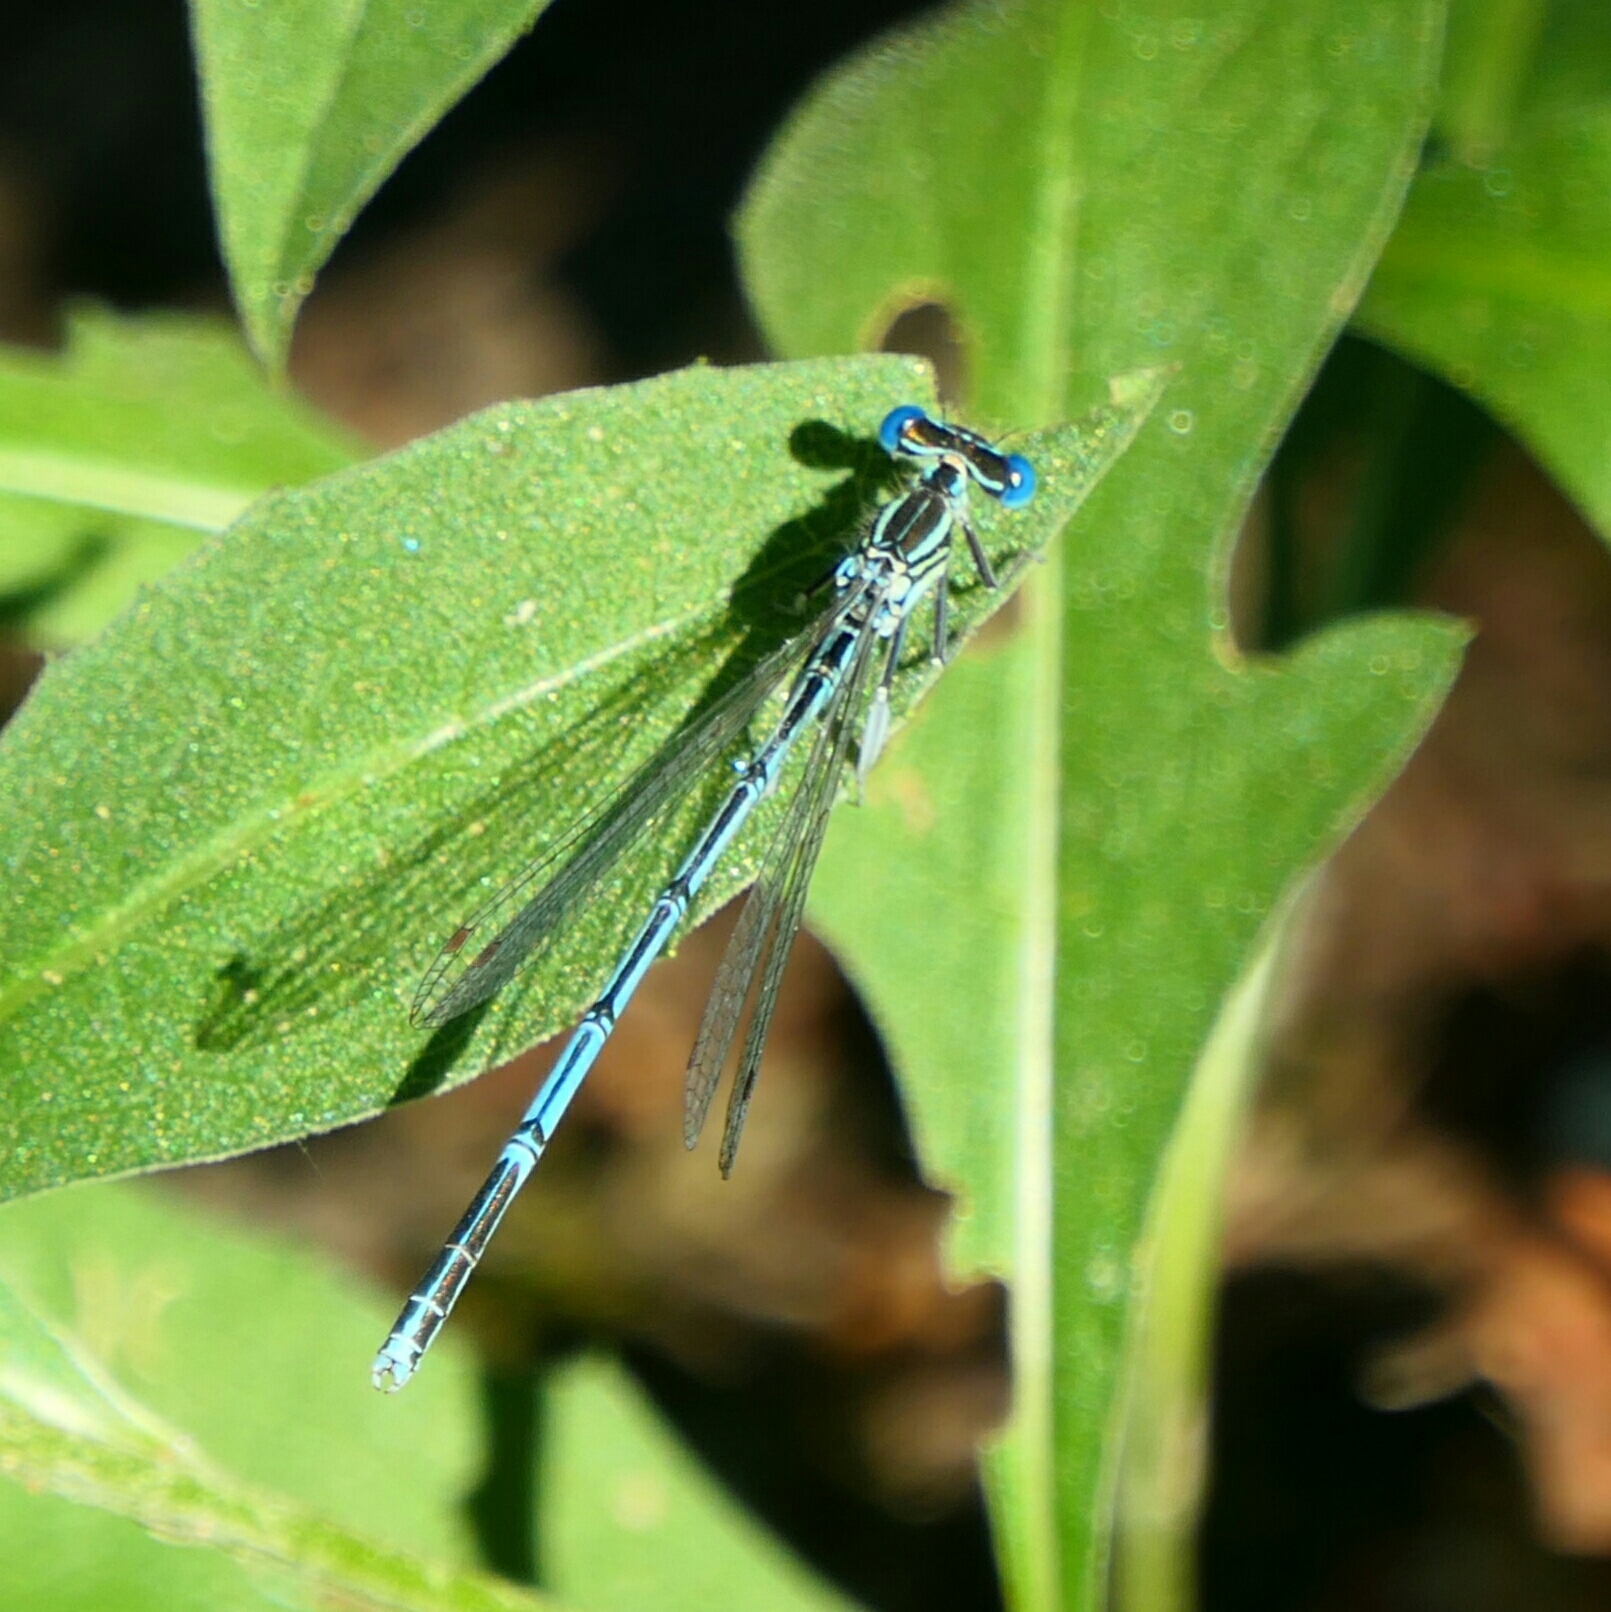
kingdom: Animalia
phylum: Arthropoda
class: Insecta
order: Odonata
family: Platycnemididae
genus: Platycnemis
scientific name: Platycnemis pennipes
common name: White-legged damselfly
